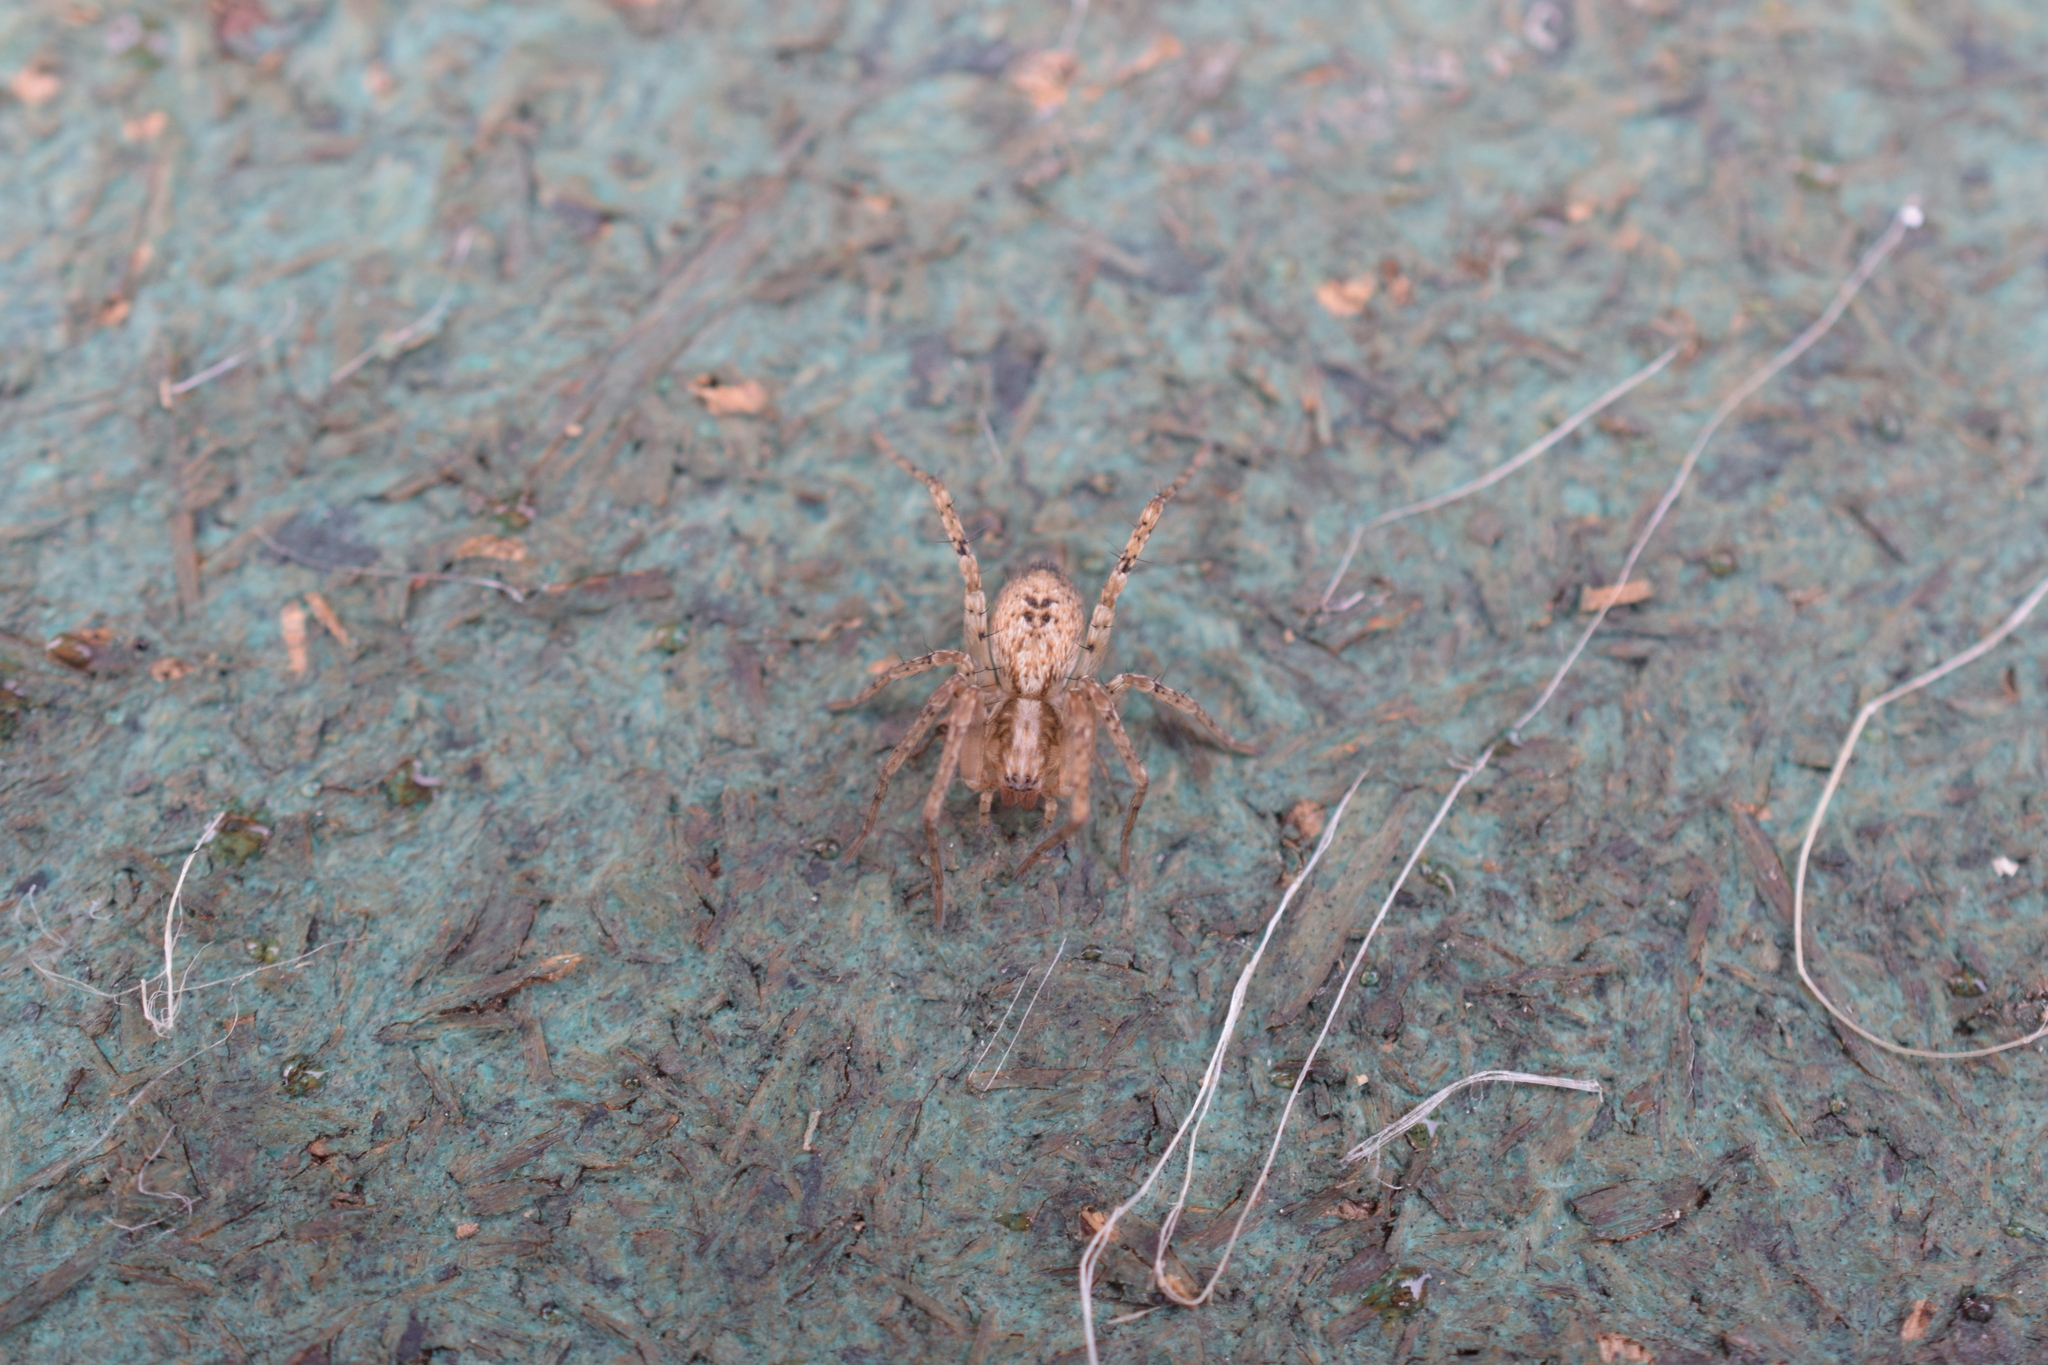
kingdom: Animalia
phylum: Arthropoda
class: Arachnida
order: Araneae
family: Anyphaenidae
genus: Anyphaena
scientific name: Anyphaena accentuata
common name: Buzzing spider
